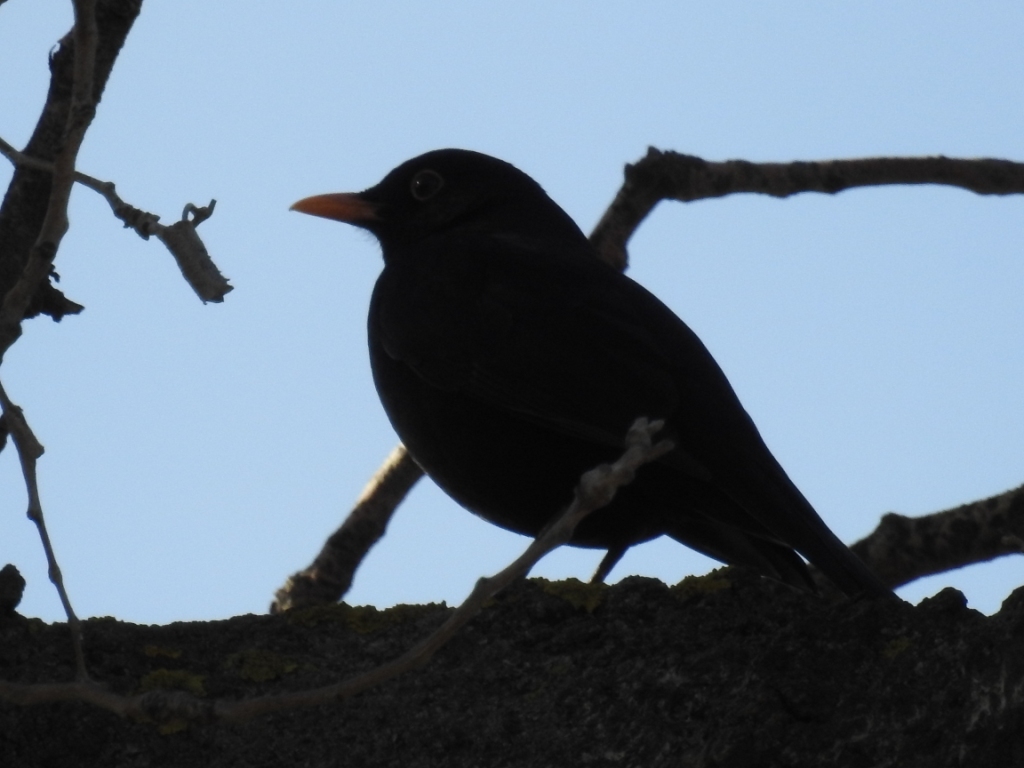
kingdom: Animalia
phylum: Chordata
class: Aves
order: Passeriformes
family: Turdidae
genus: Turdus
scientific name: Turdus merula
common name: Common blackbird
